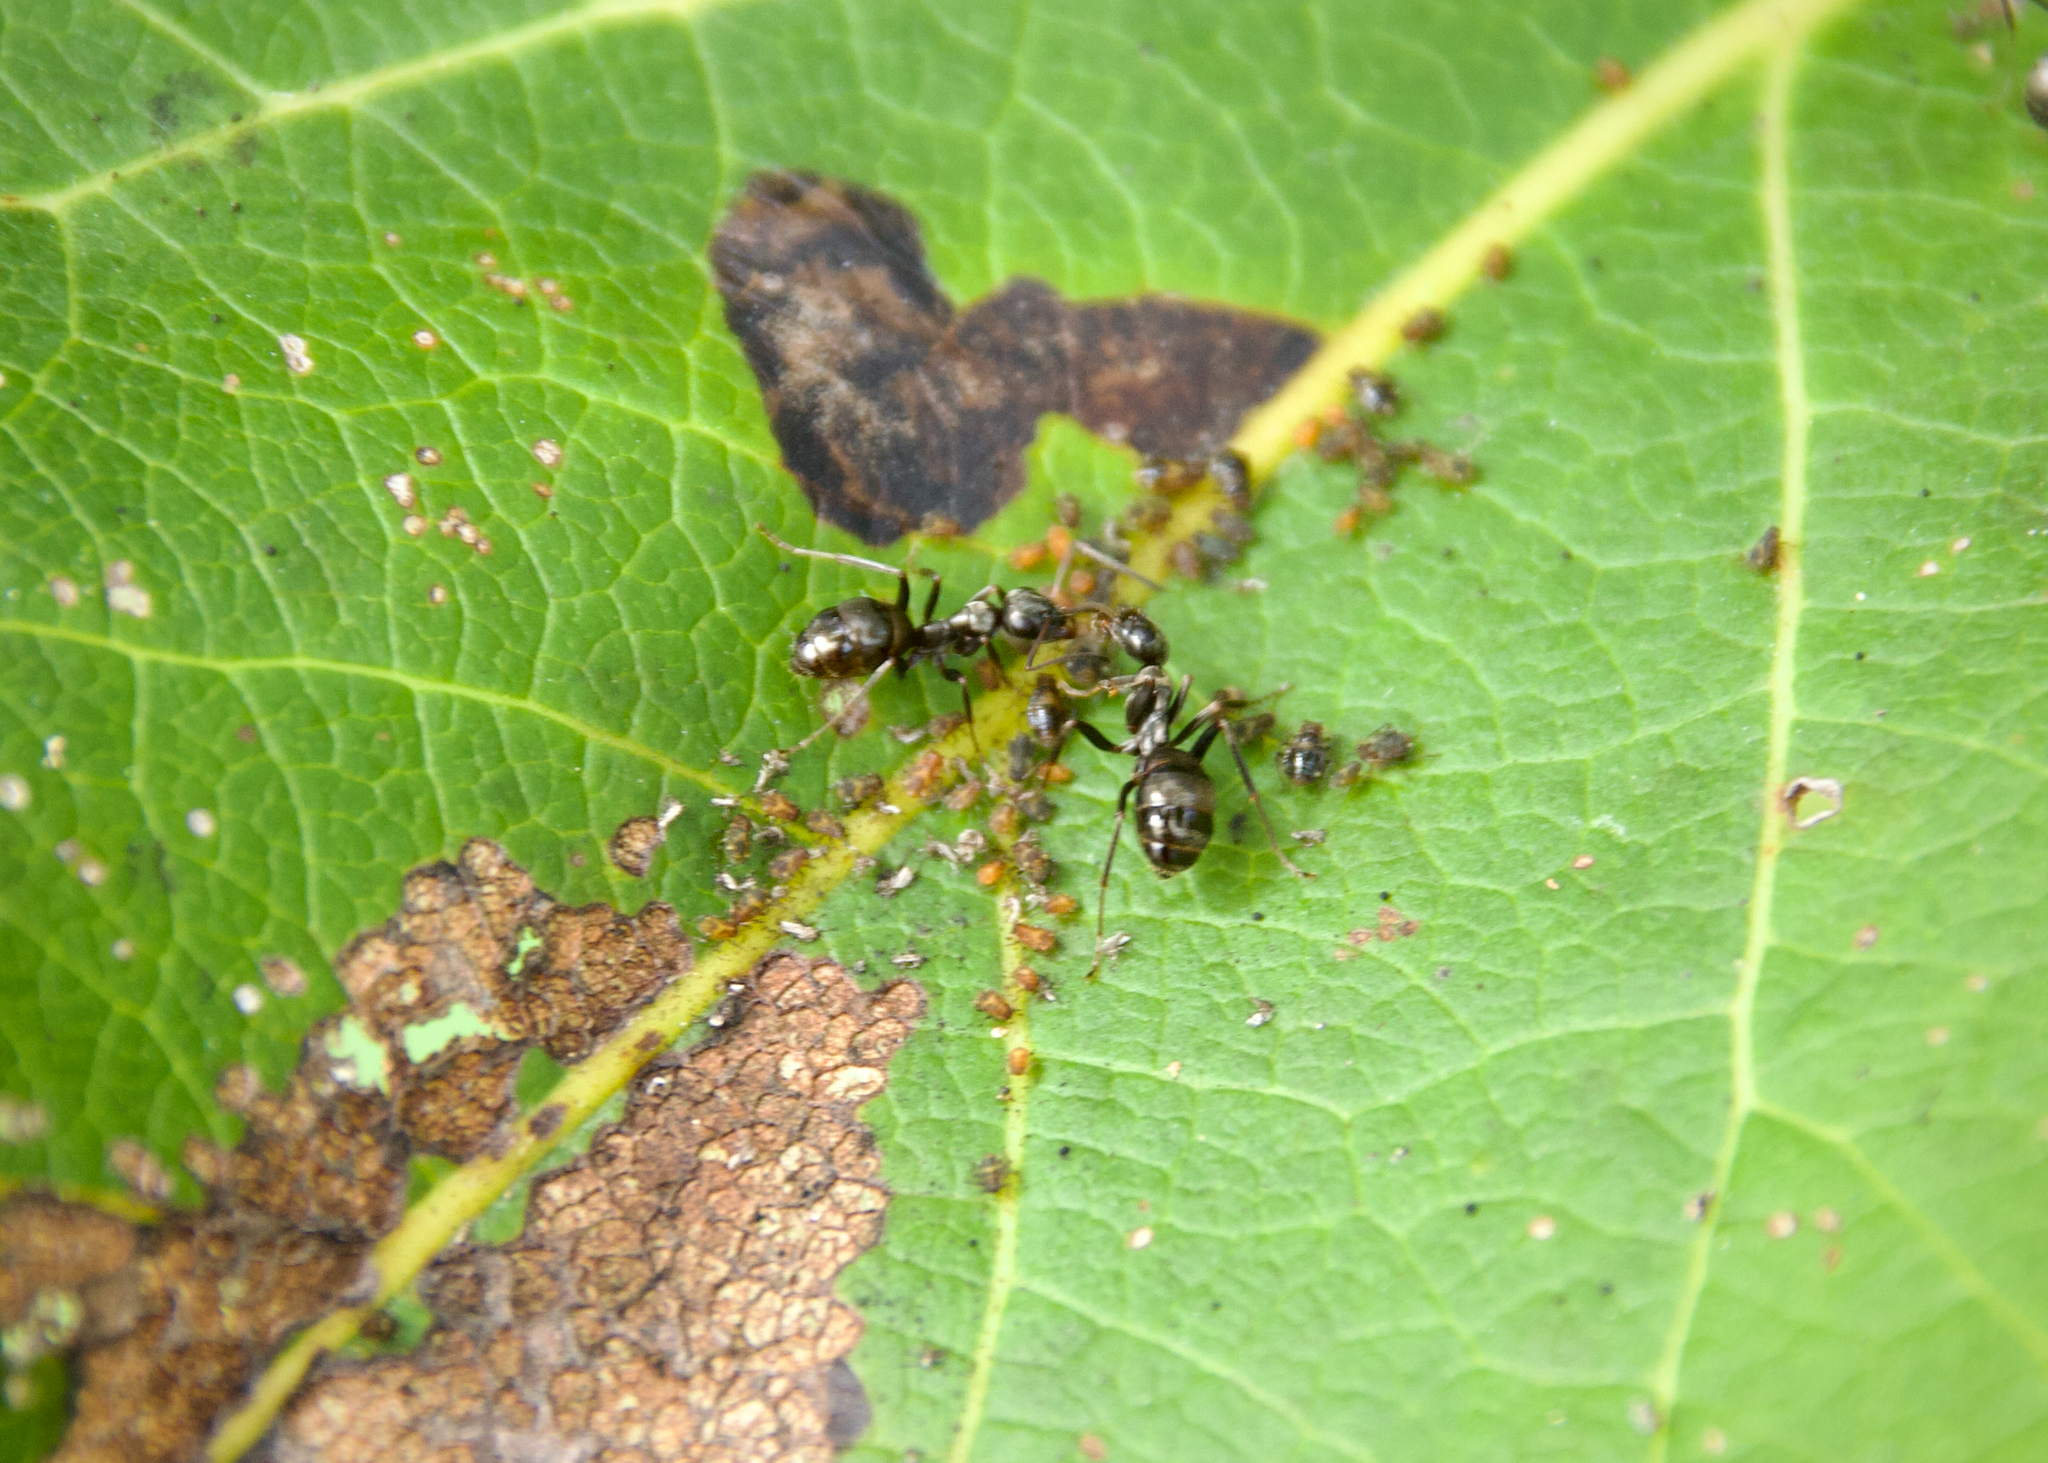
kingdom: Animalia
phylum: Arthropoda
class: Insecta
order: Hymenoptera
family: Formicidae
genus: Formica
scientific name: Formica
